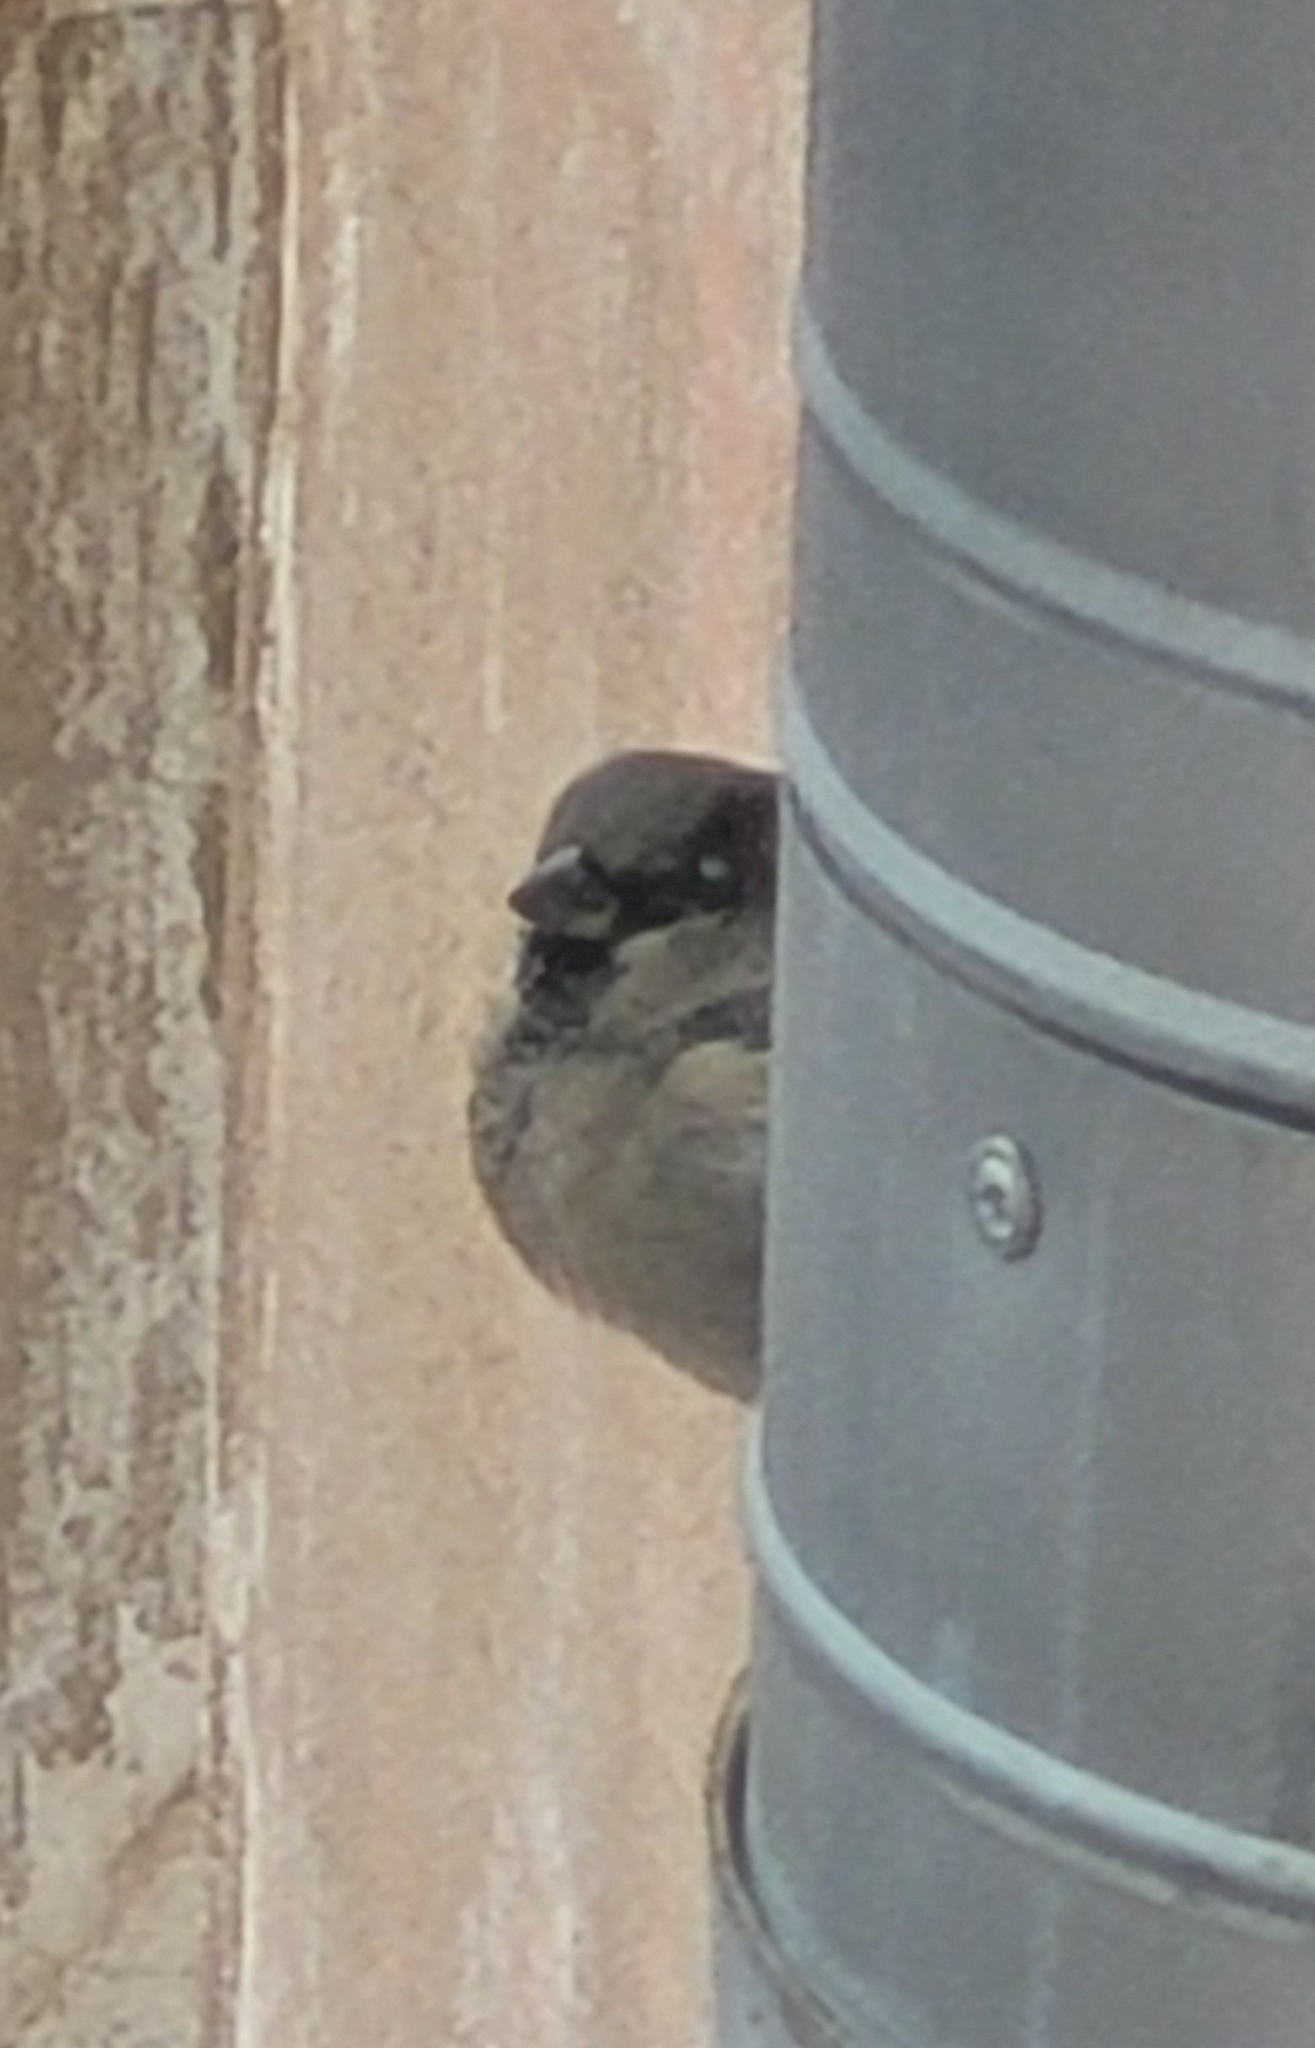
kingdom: Animalia
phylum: Chordata
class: Aves
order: Passeriformes
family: Passeridae
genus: Passer
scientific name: Passer domesticus
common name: House sparrow
